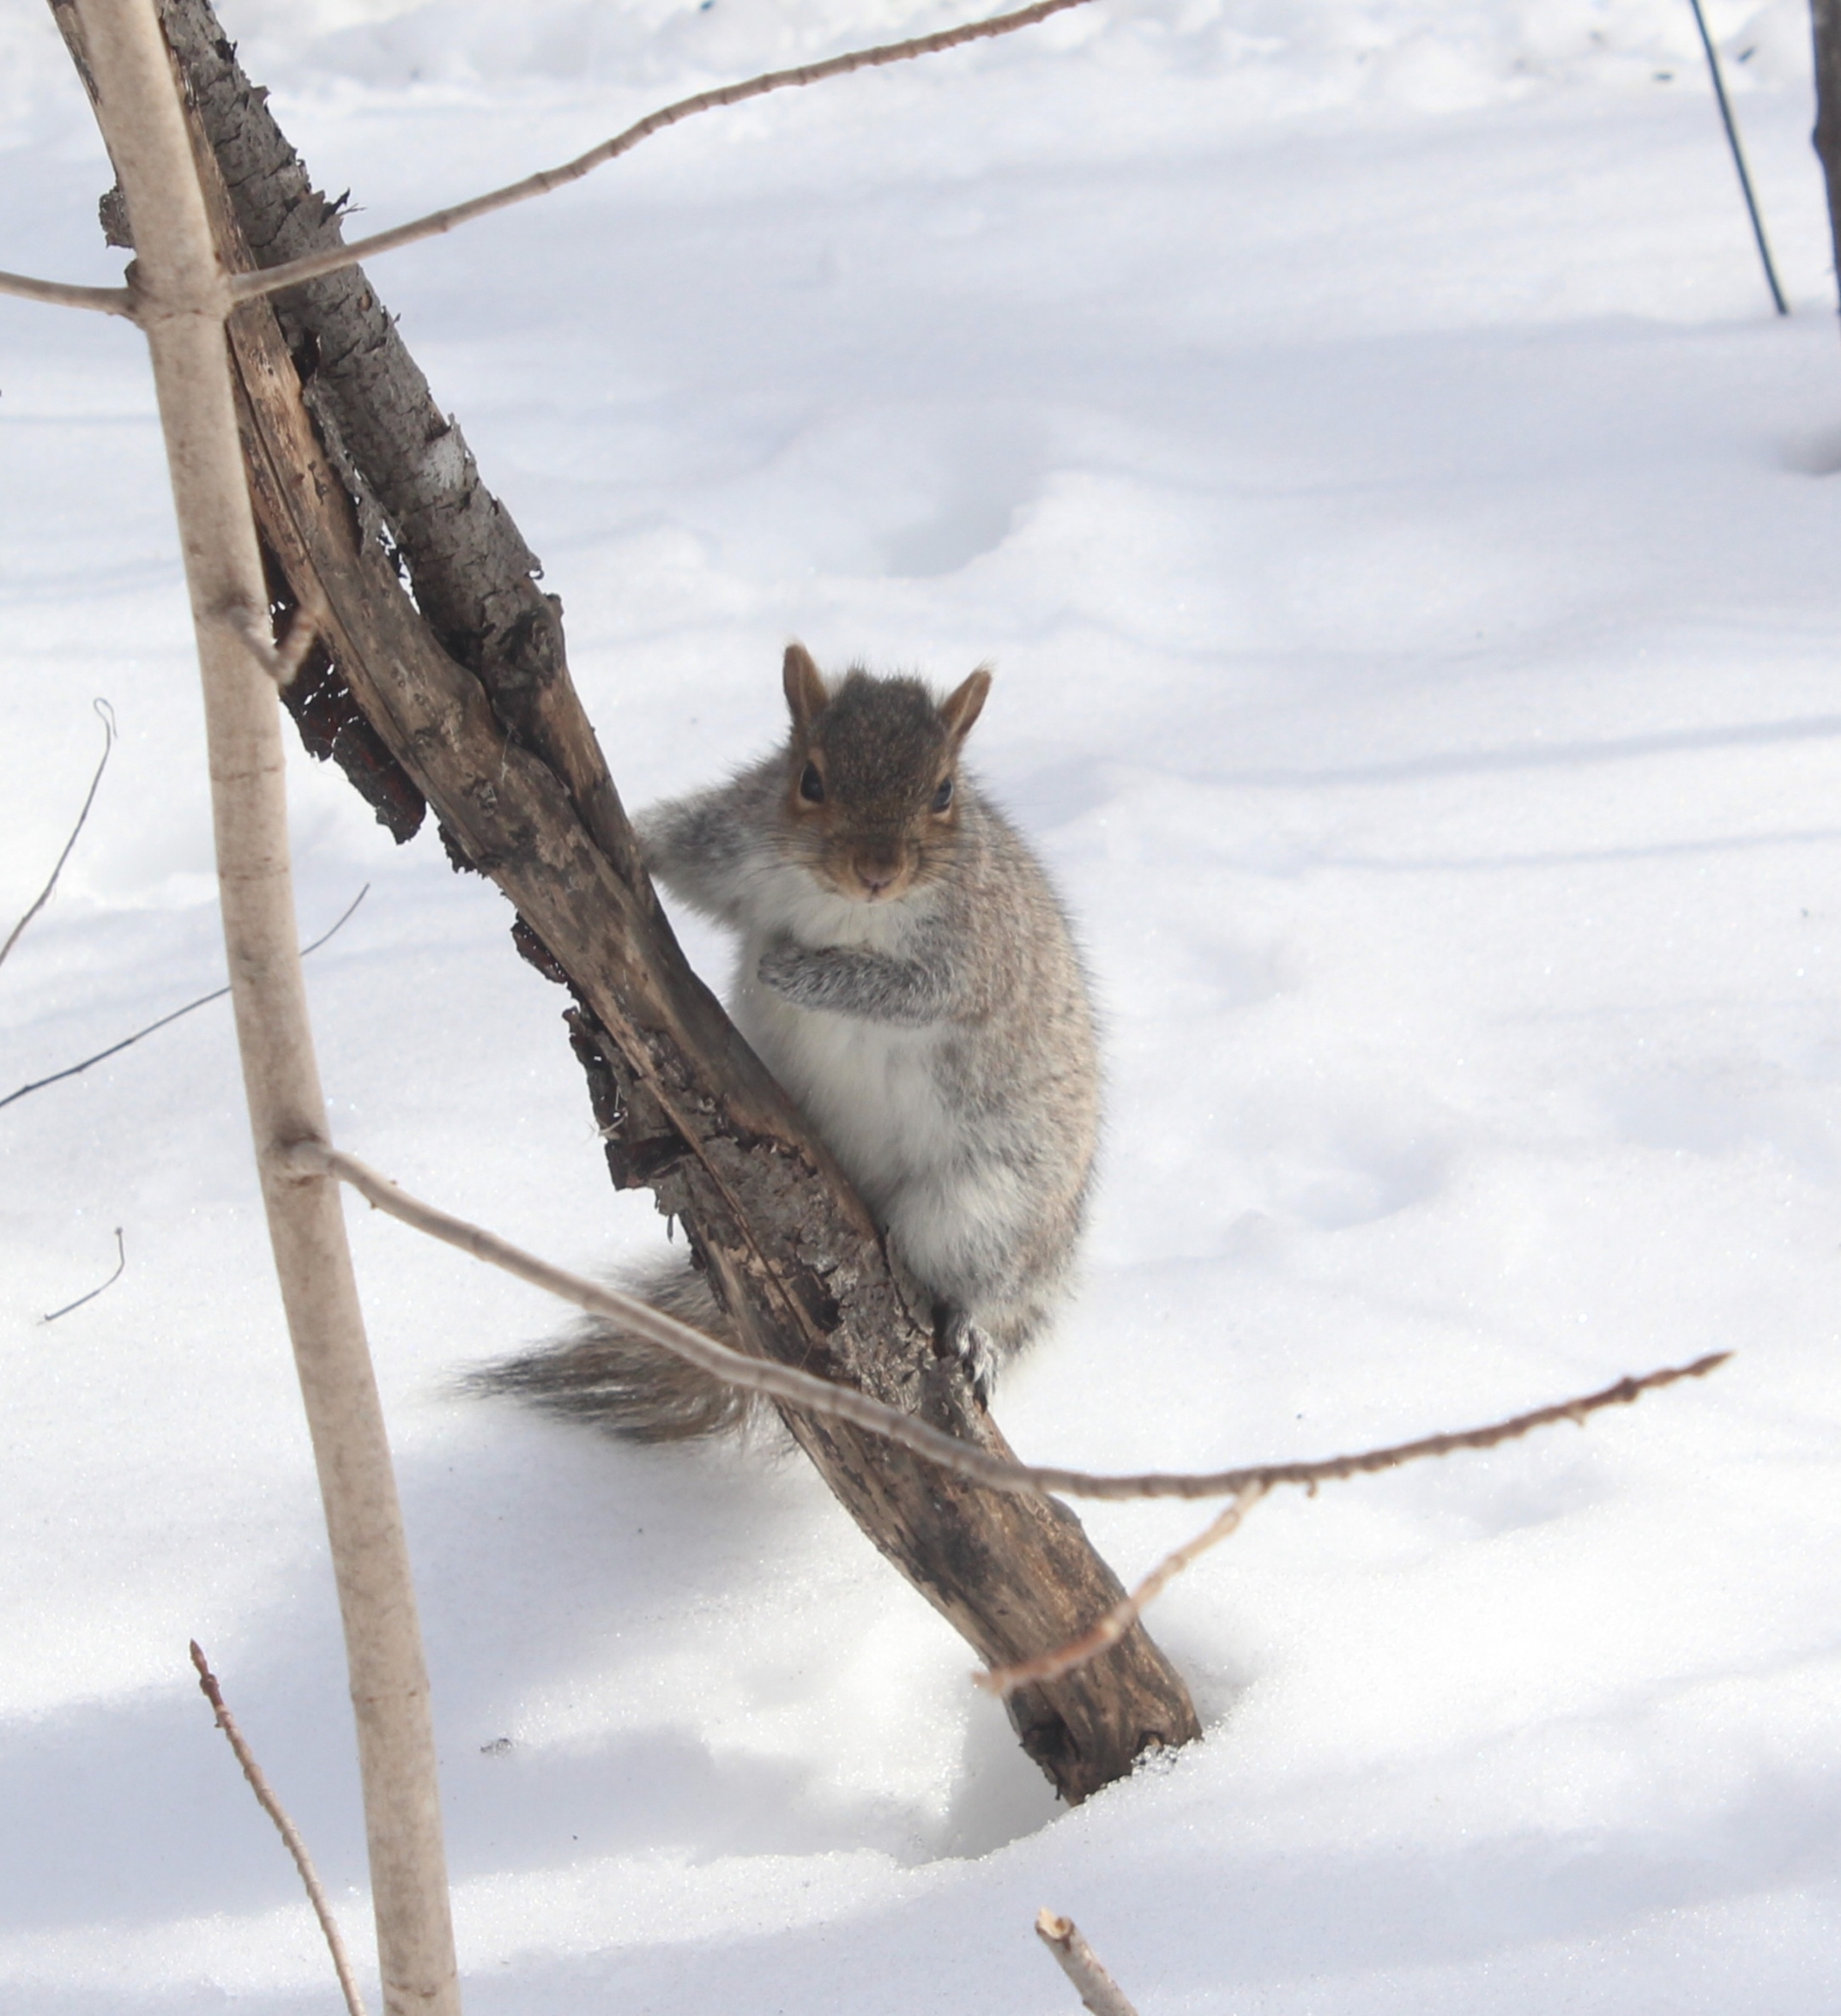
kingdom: Animalia
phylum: Chordata
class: Mammalia
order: Rodentia
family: Sciuridae
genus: Sciurus
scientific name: Sciurus carolinensis
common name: Eastern gray squirrel
